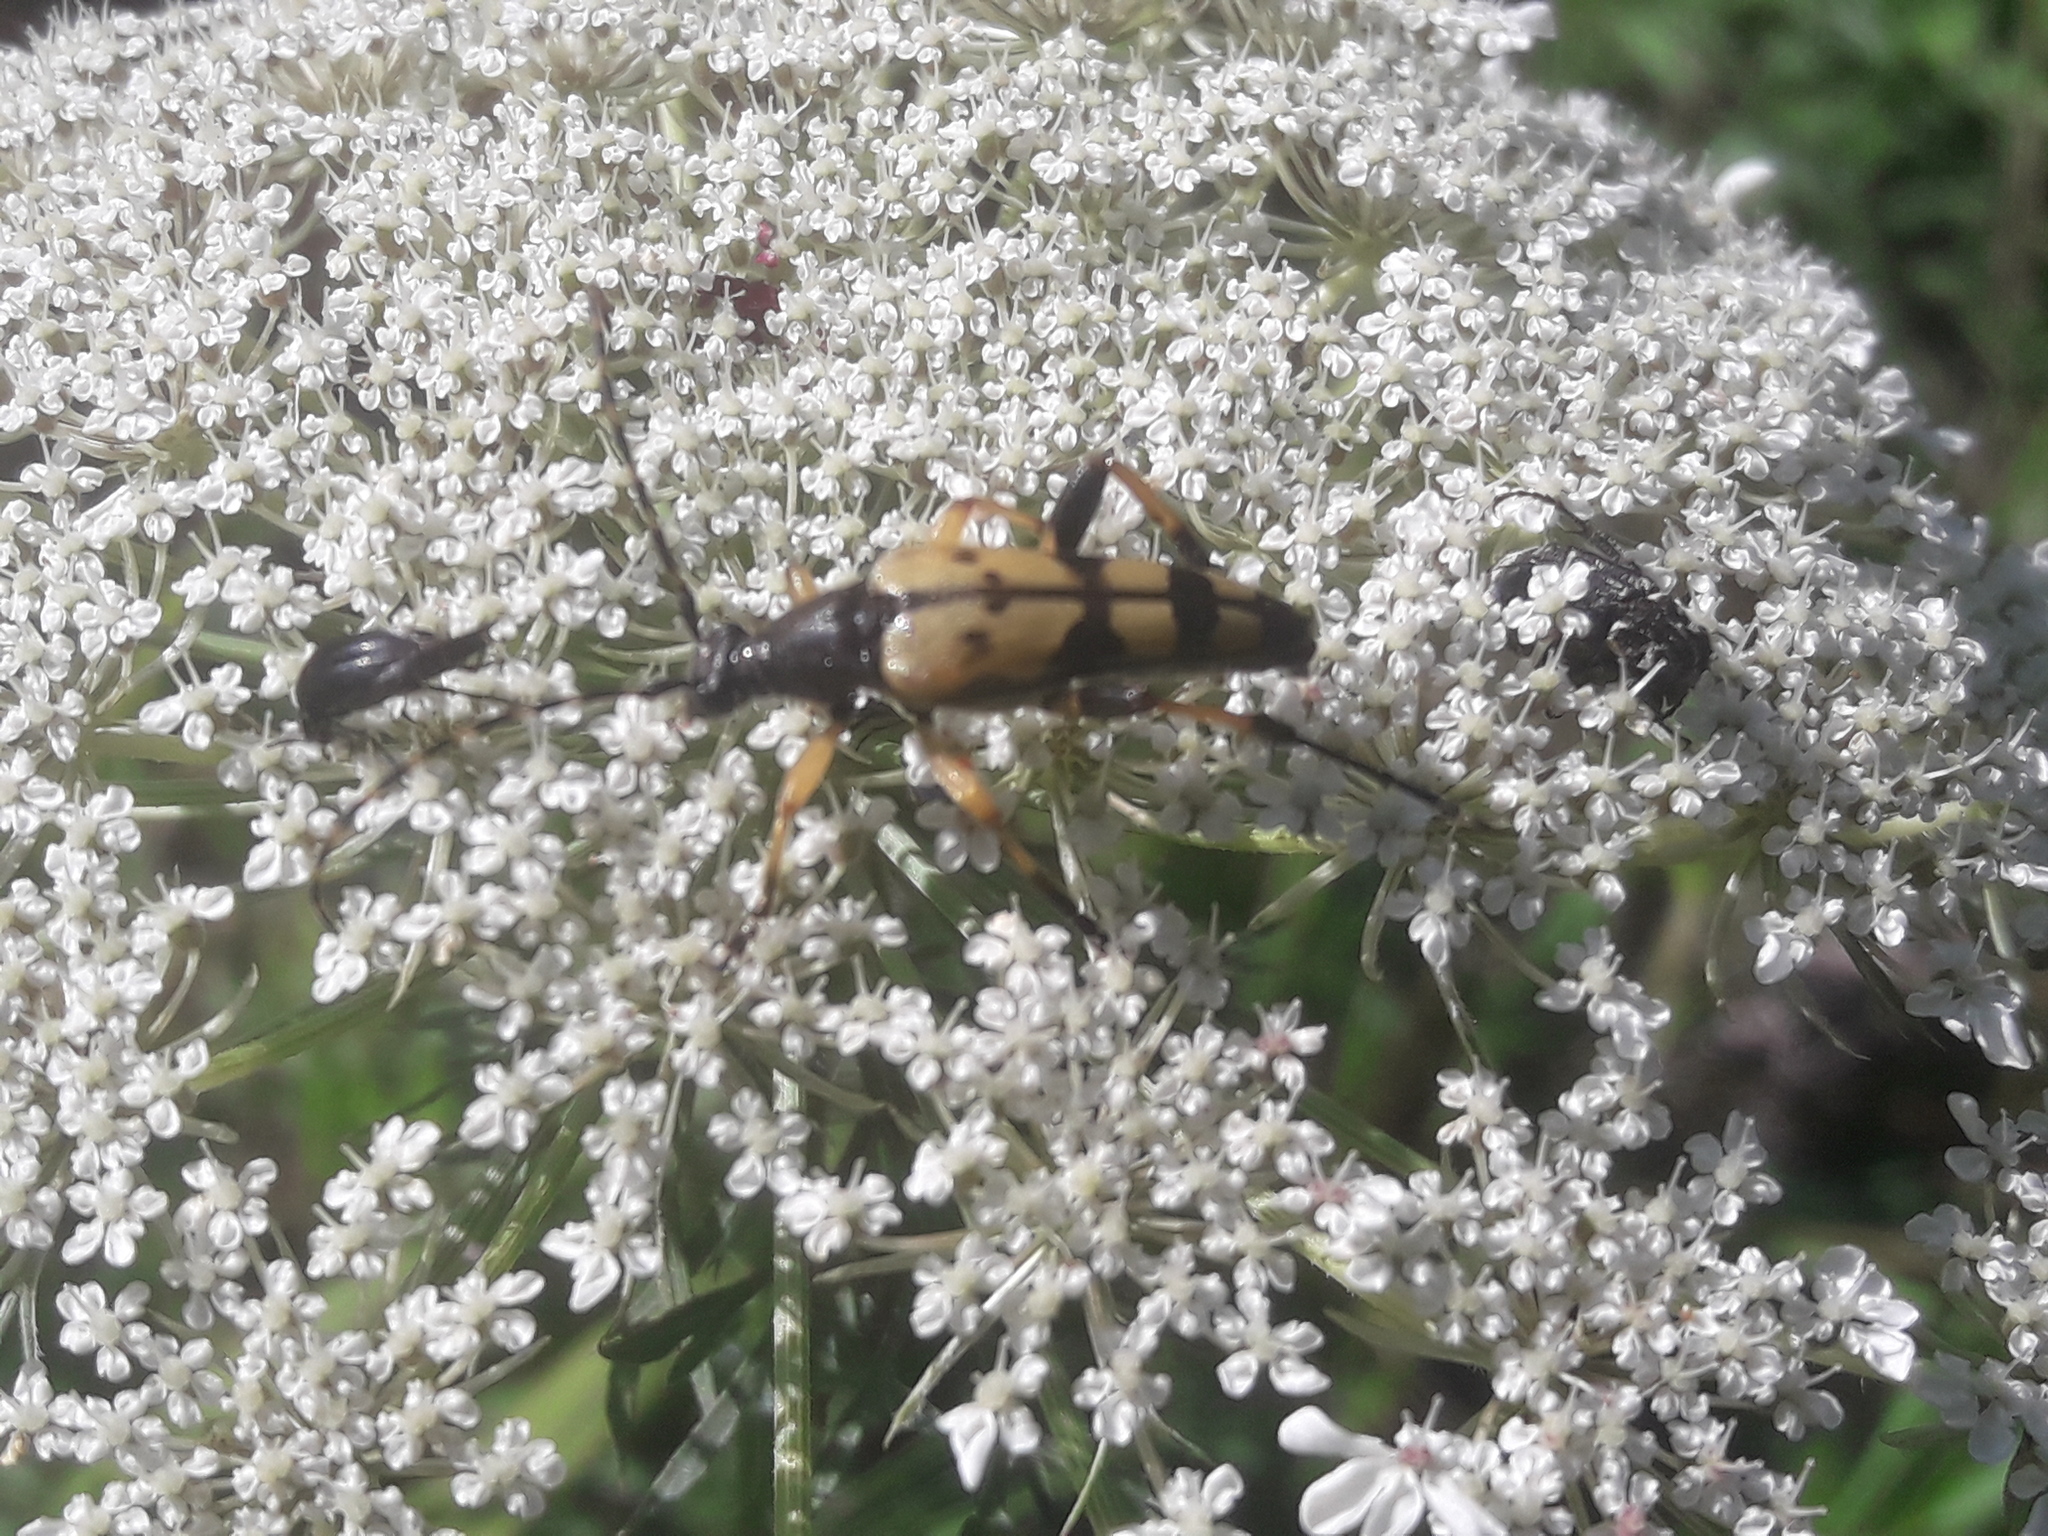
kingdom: Animalia
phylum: Arthropoda
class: Insecta
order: Coleoptera
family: Cerambycidae
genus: Rutpela
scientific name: Rutpela maculata
